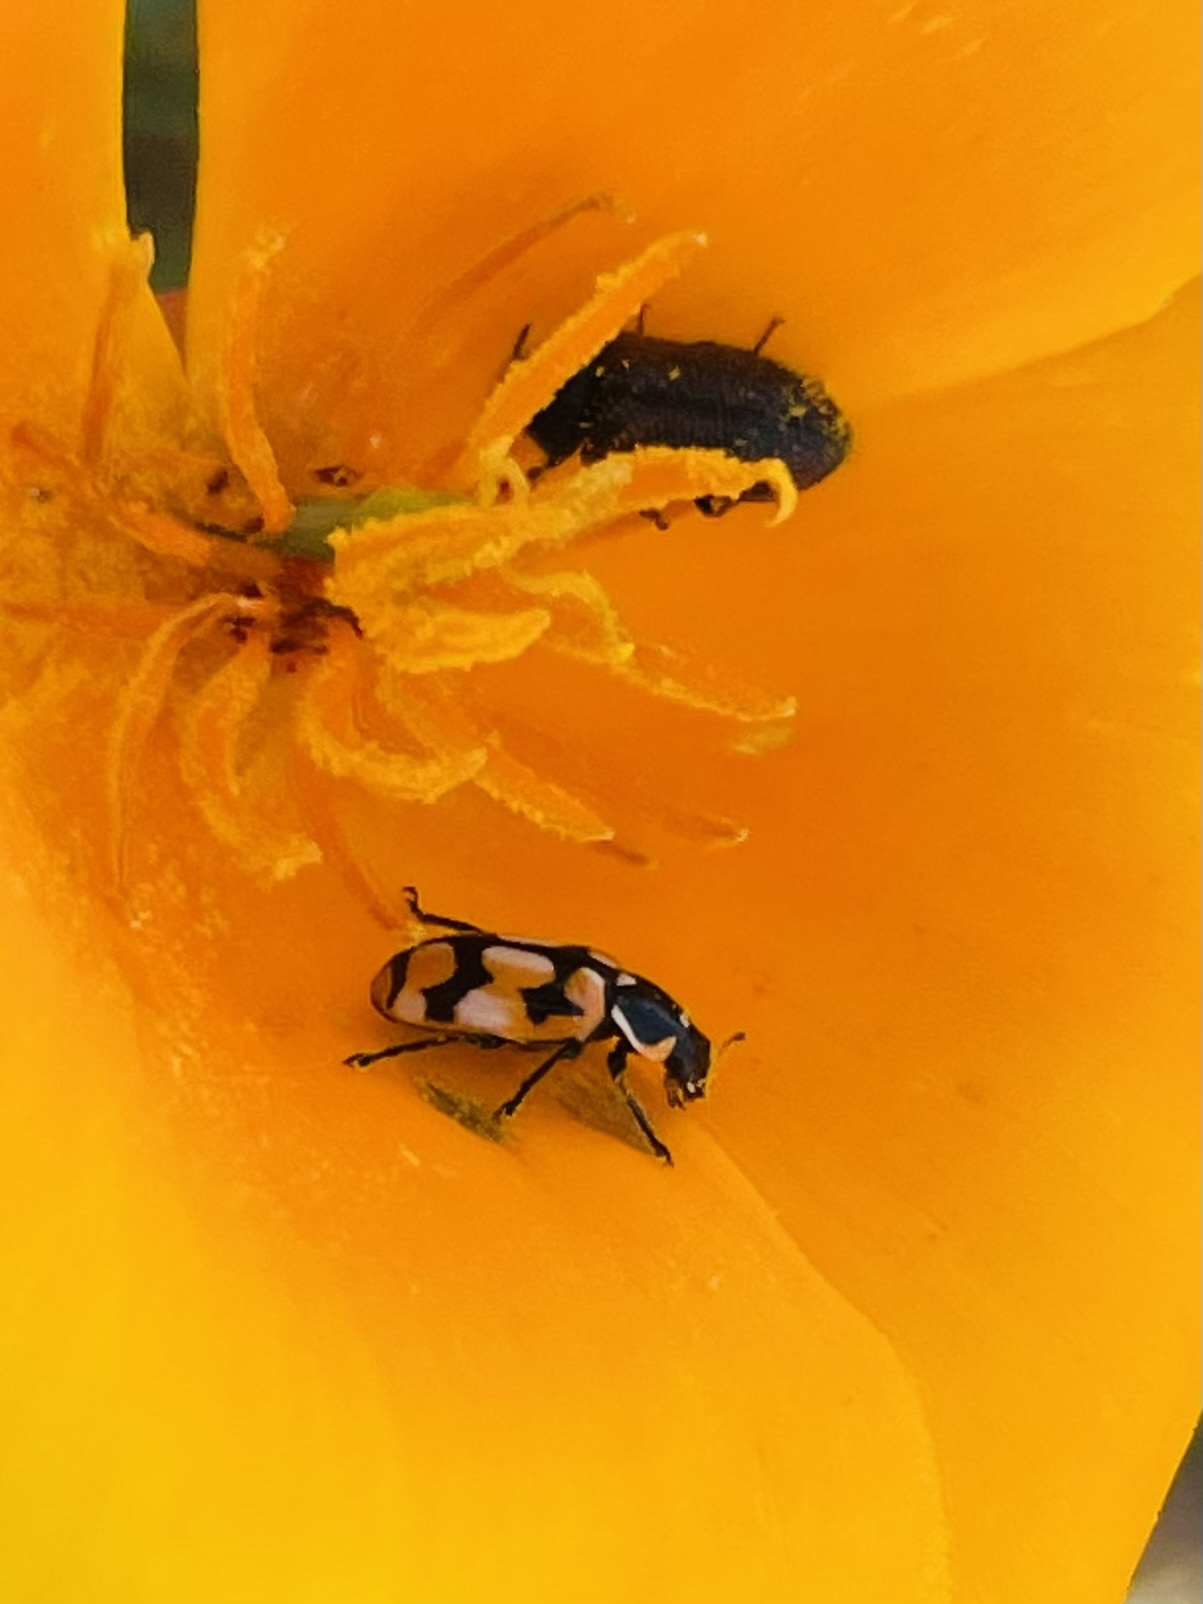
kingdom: Animalia
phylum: Arthropoda
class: Insecta
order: Coleoptera
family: Coccinellidae
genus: Eriopis
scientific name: Eriopis chilensis
